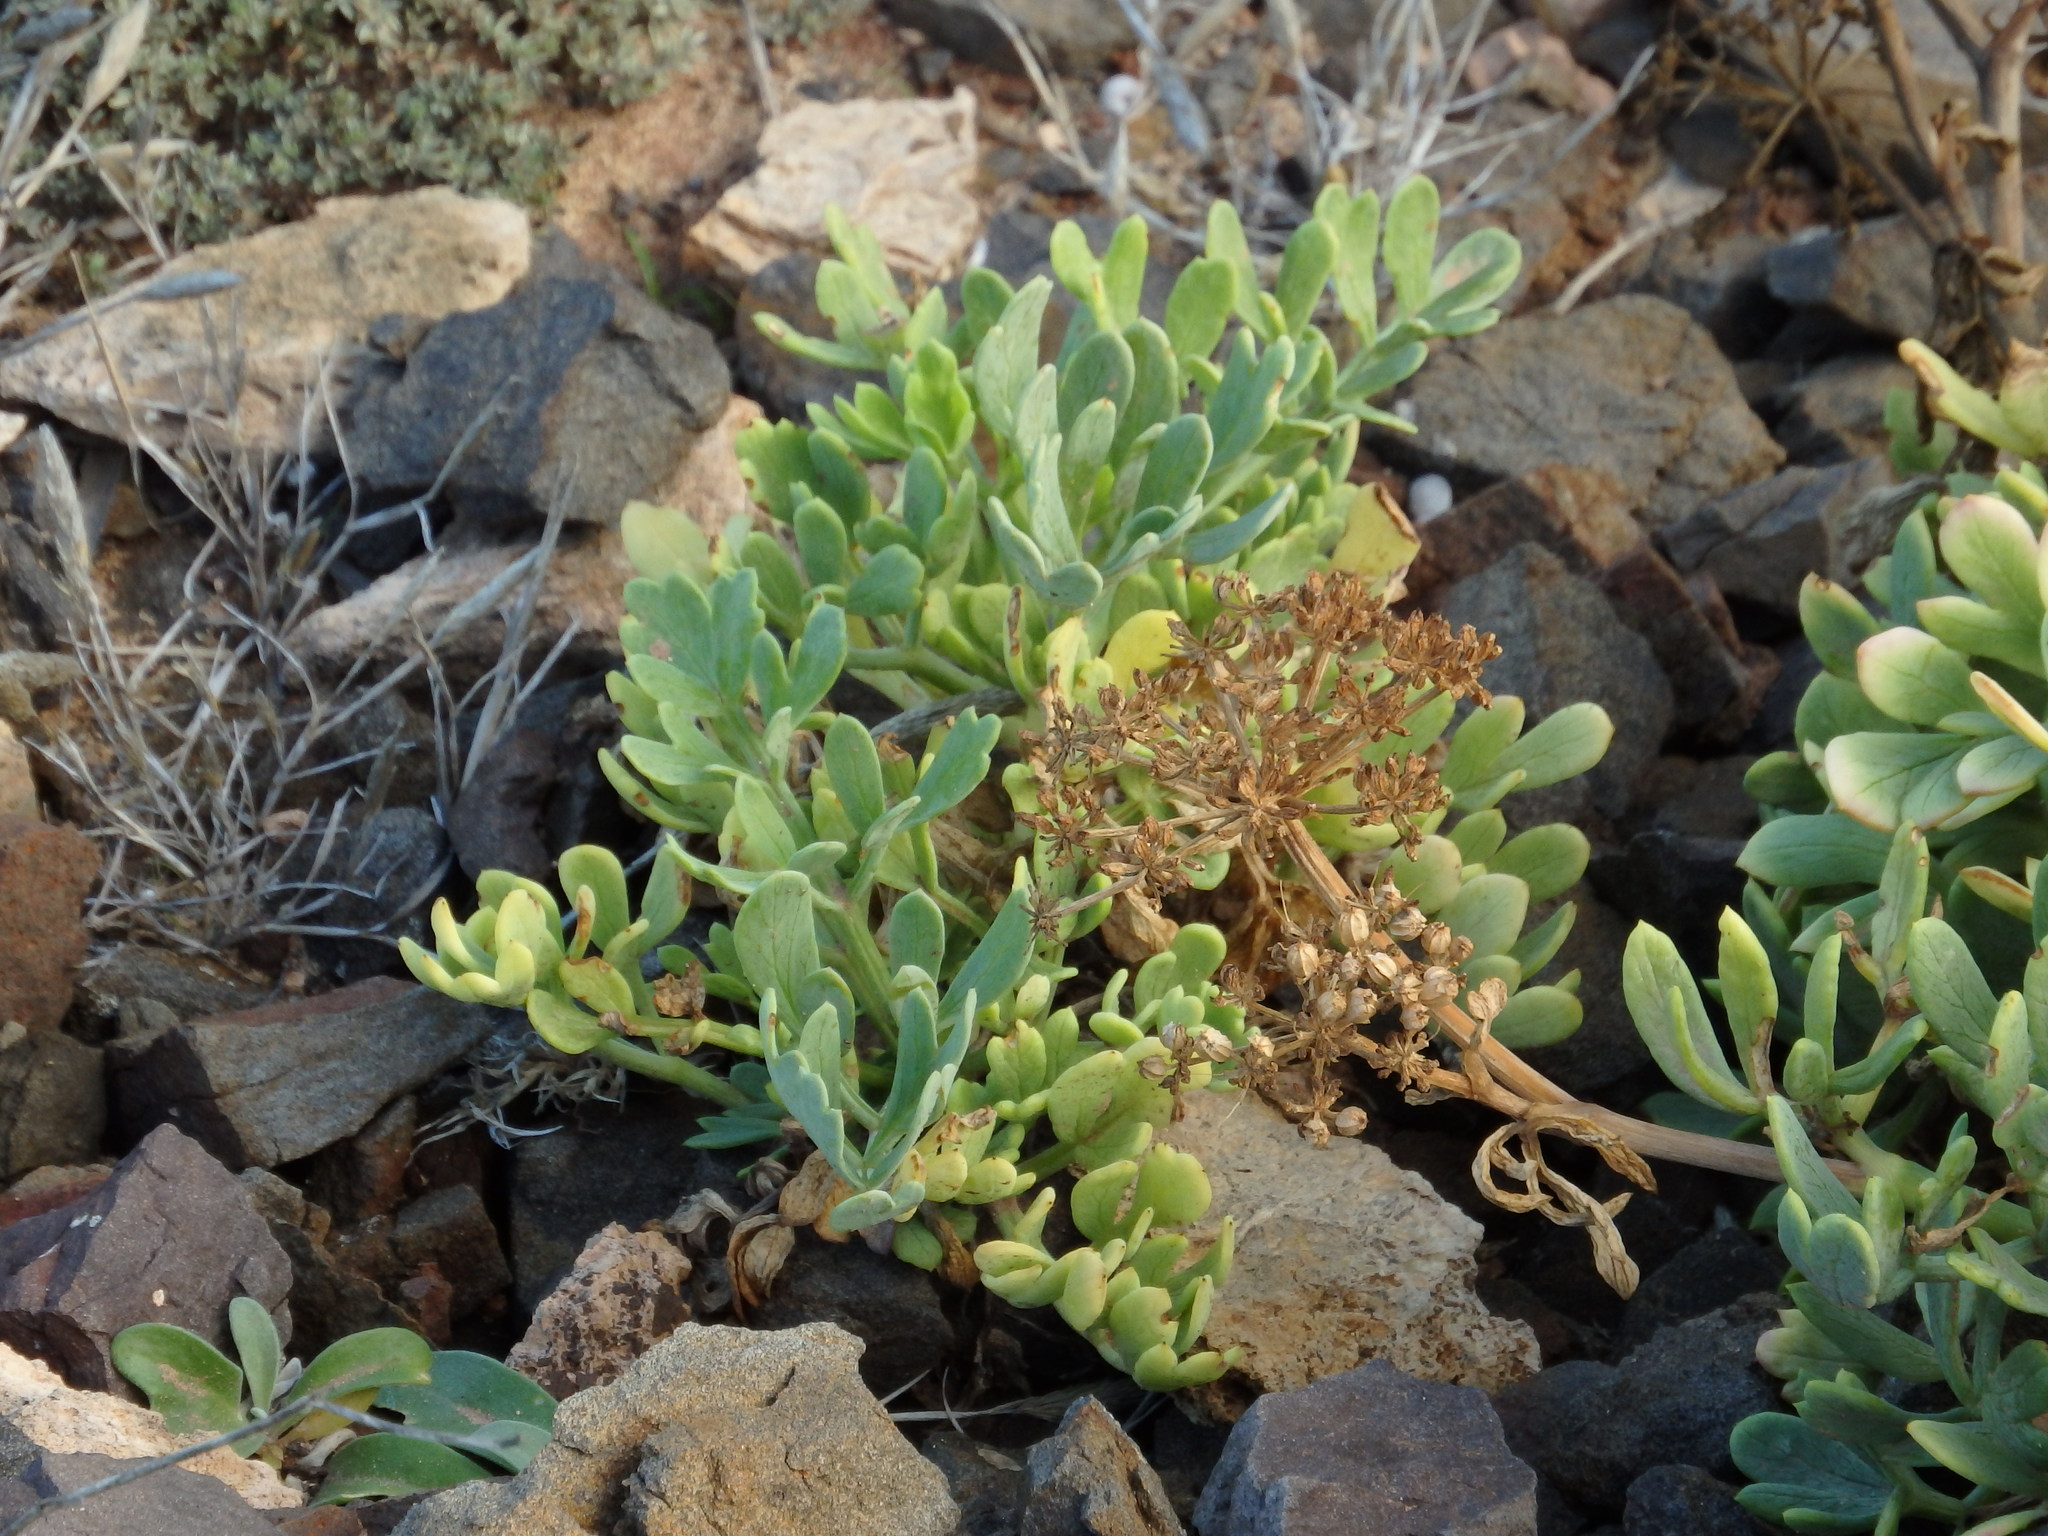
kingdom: Plantae
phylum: Tracheophyta
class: Magnoliopsida
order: Apiales
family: Apiaceae
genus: Crithmum
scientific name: Crithmum maritimum
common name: Rock samphire
